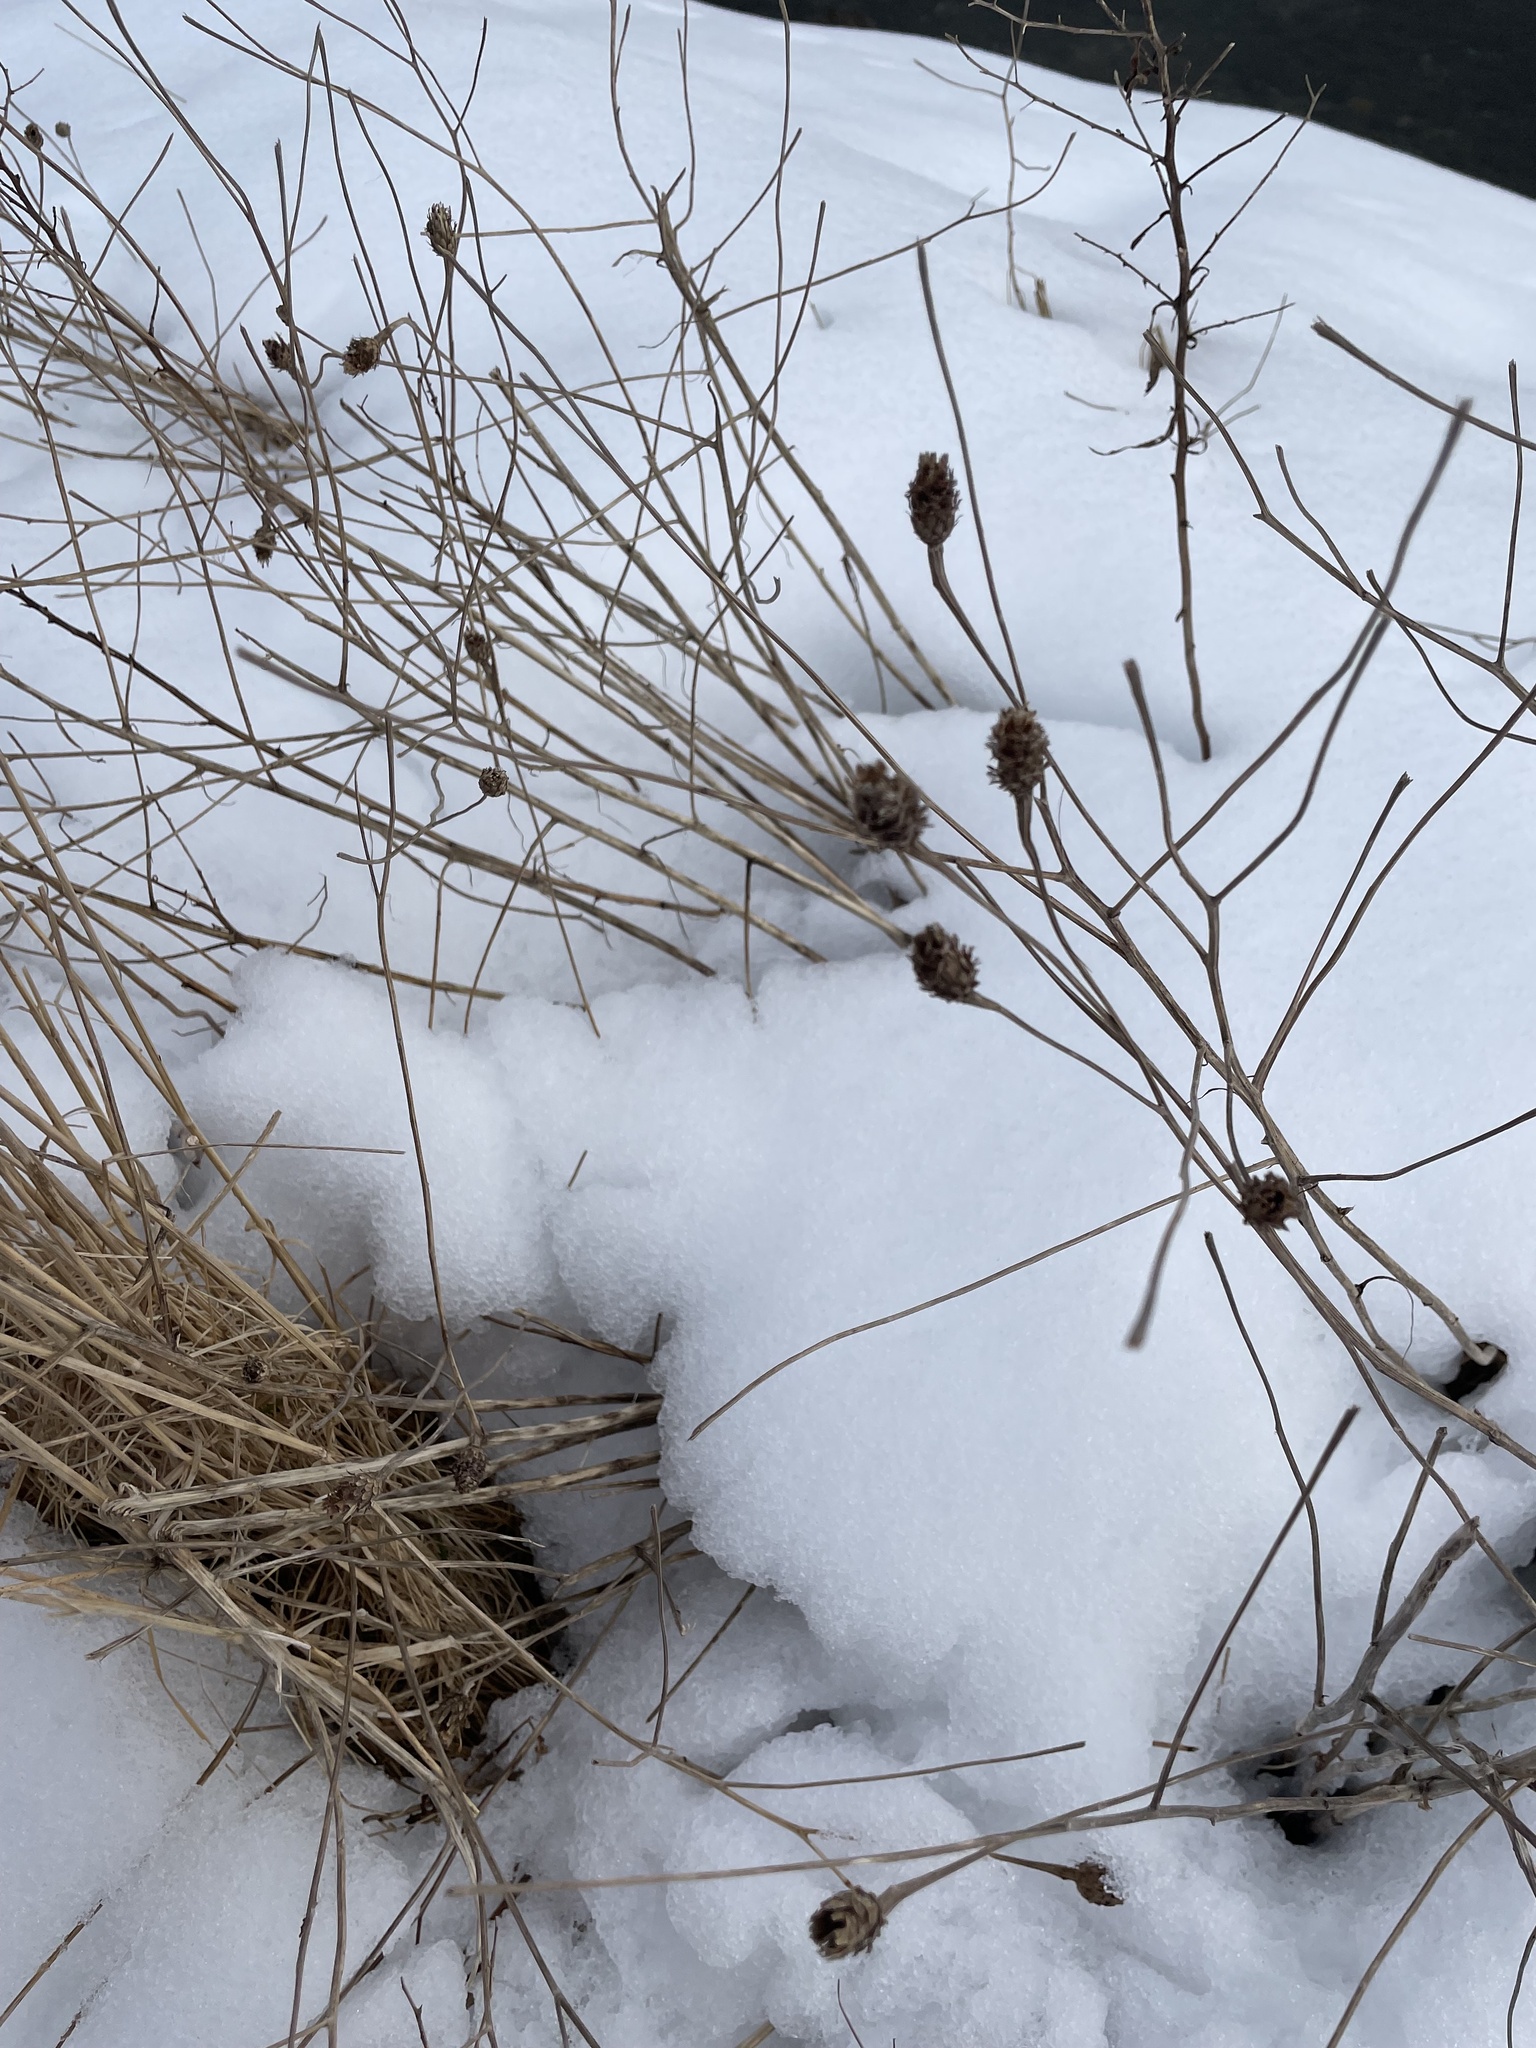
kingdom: Plantae
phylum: Tracheophyta
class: Magnoliopsida
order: Asterales
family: Asteraceae
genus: Centaurea
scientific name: Centaurea nigra
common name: Lesser knapweed
